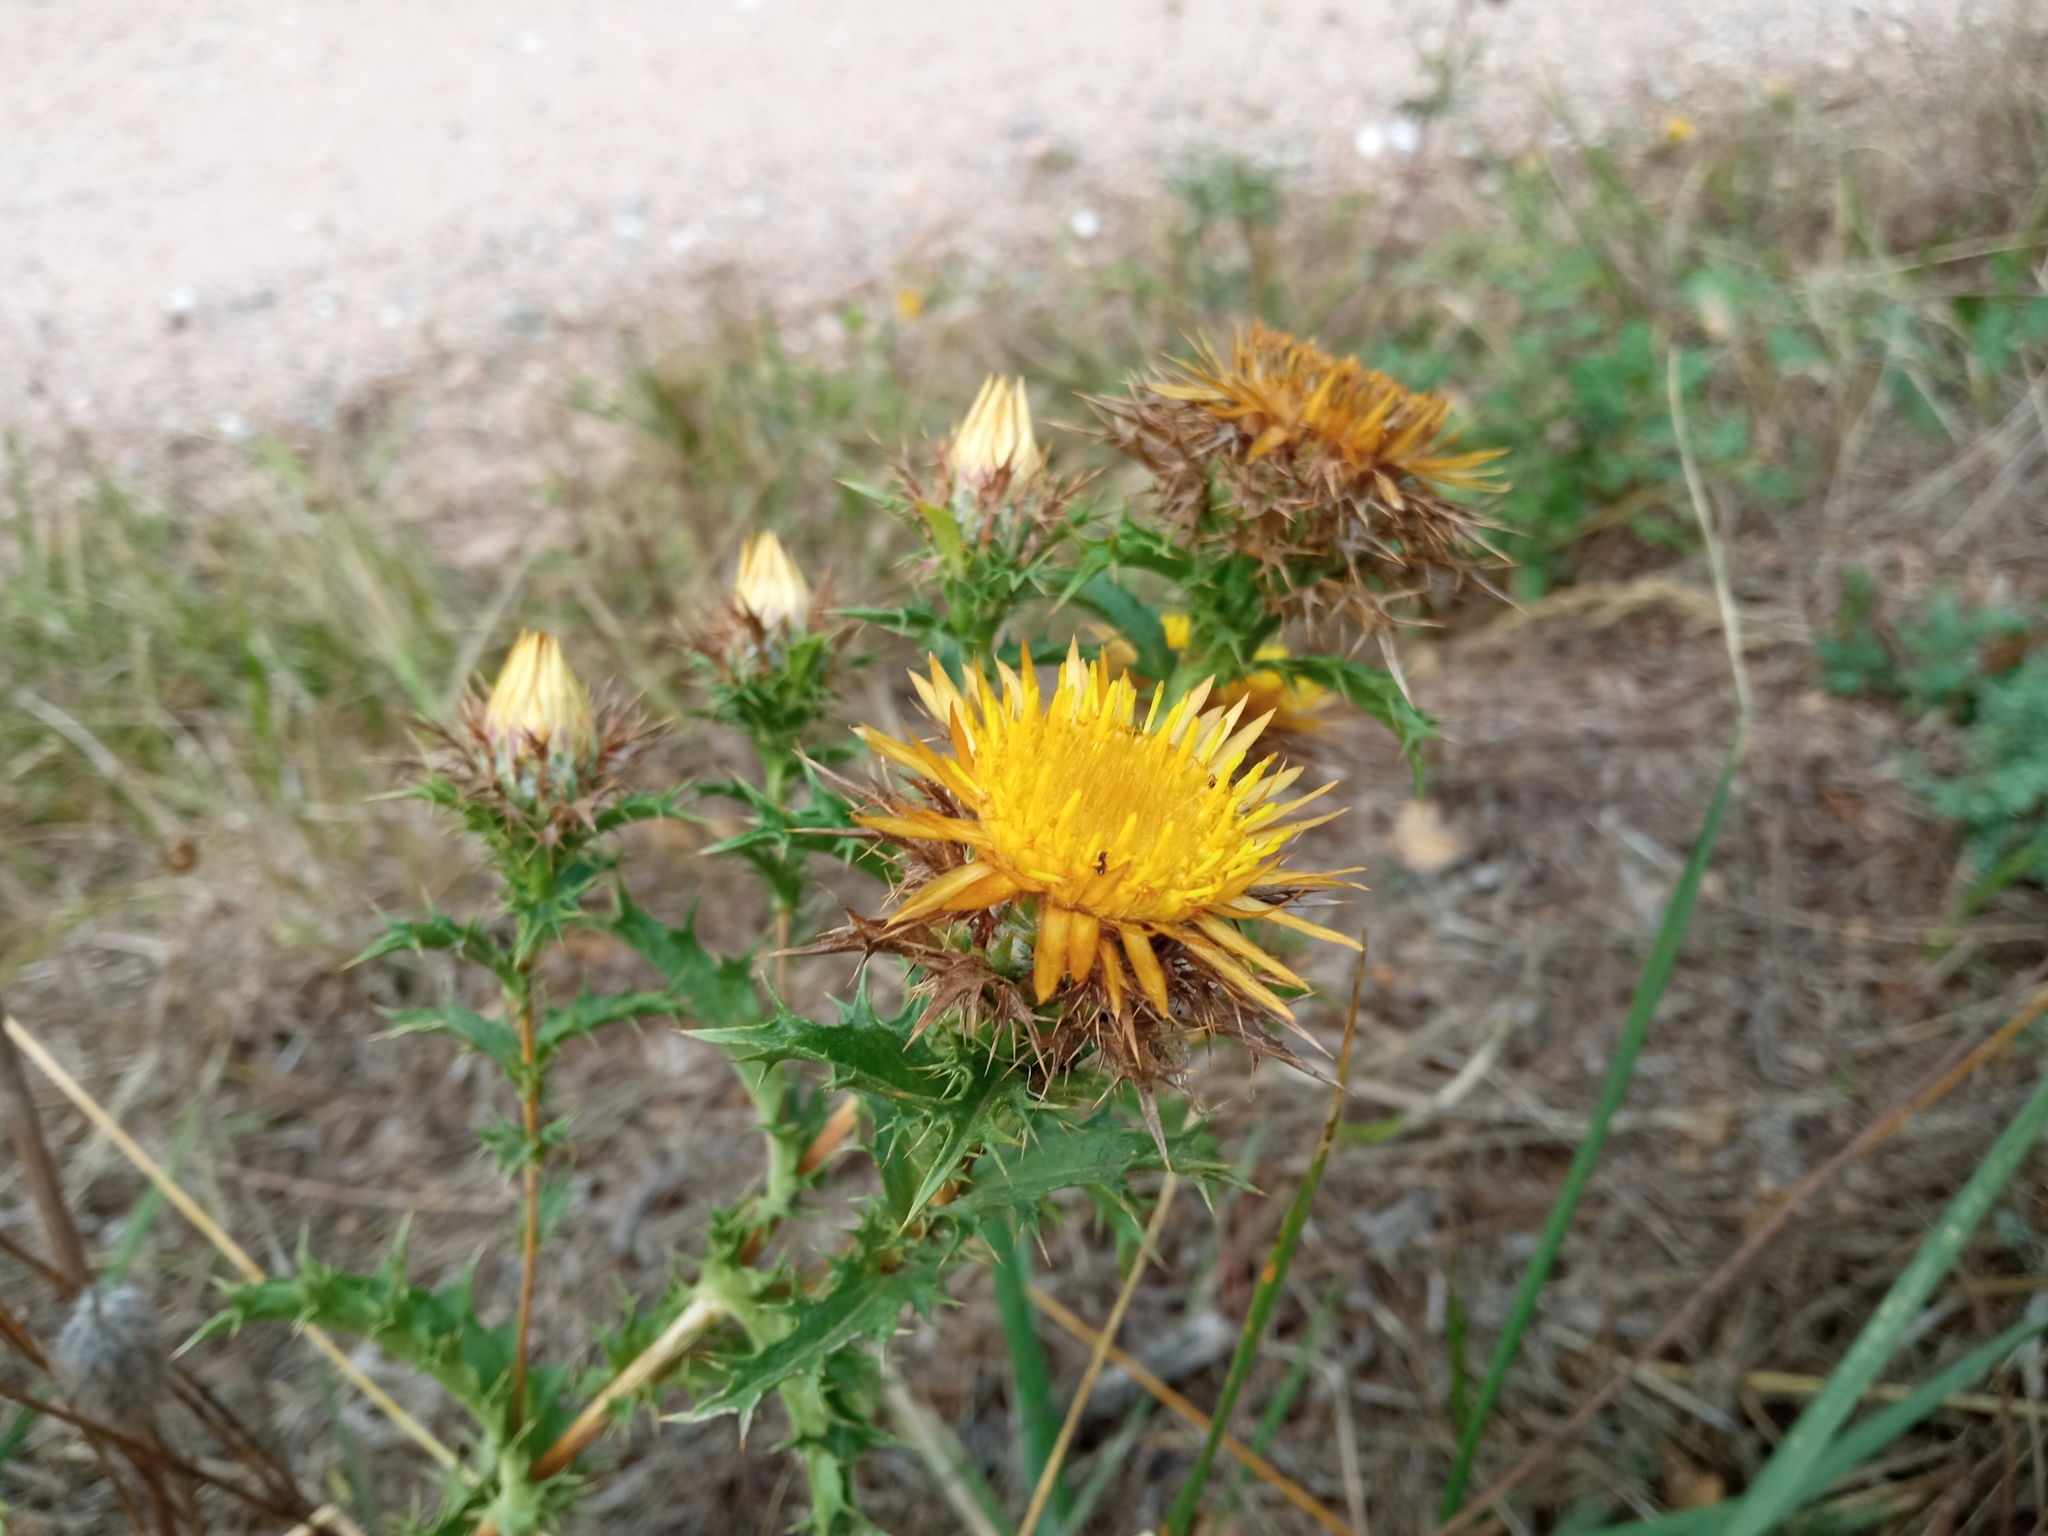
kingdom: Plantae
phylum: Tracheophyta
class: Magnoliopsida
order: Asterales
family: Asteraceae
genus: Carlina
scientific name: Carlina hispanica
